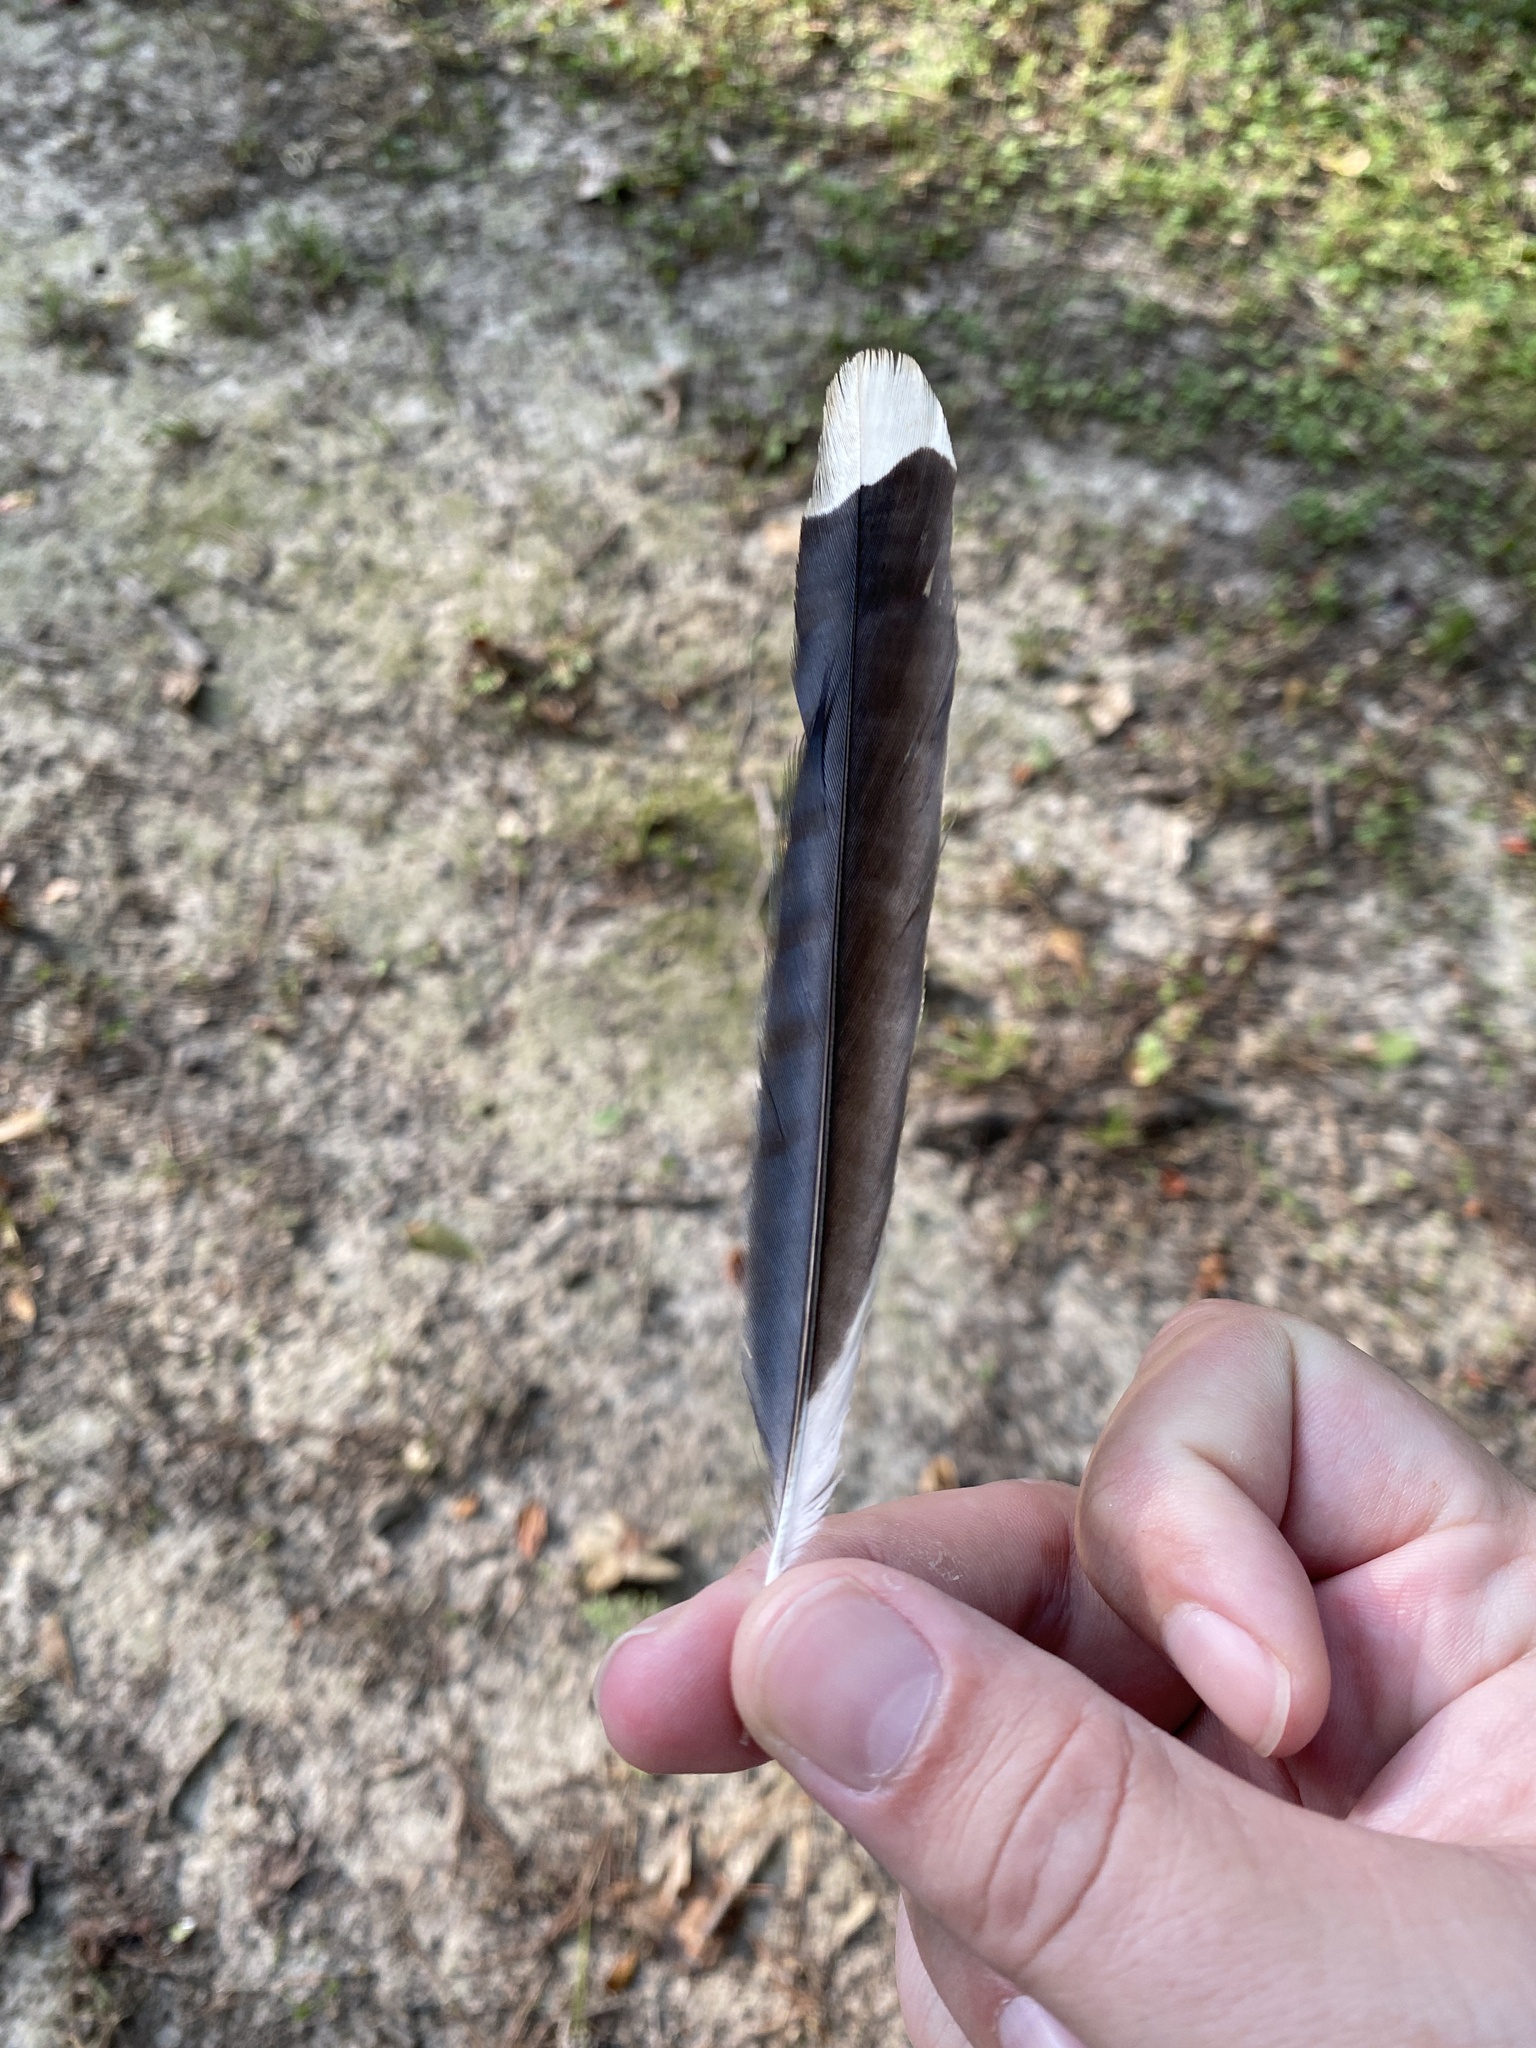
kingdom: Animalia
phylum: Chordata
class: Aves
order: Passeriformes
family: Corvidae
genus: Cyanocitta
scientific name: Cyanocitta cristata
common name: Blue jay
